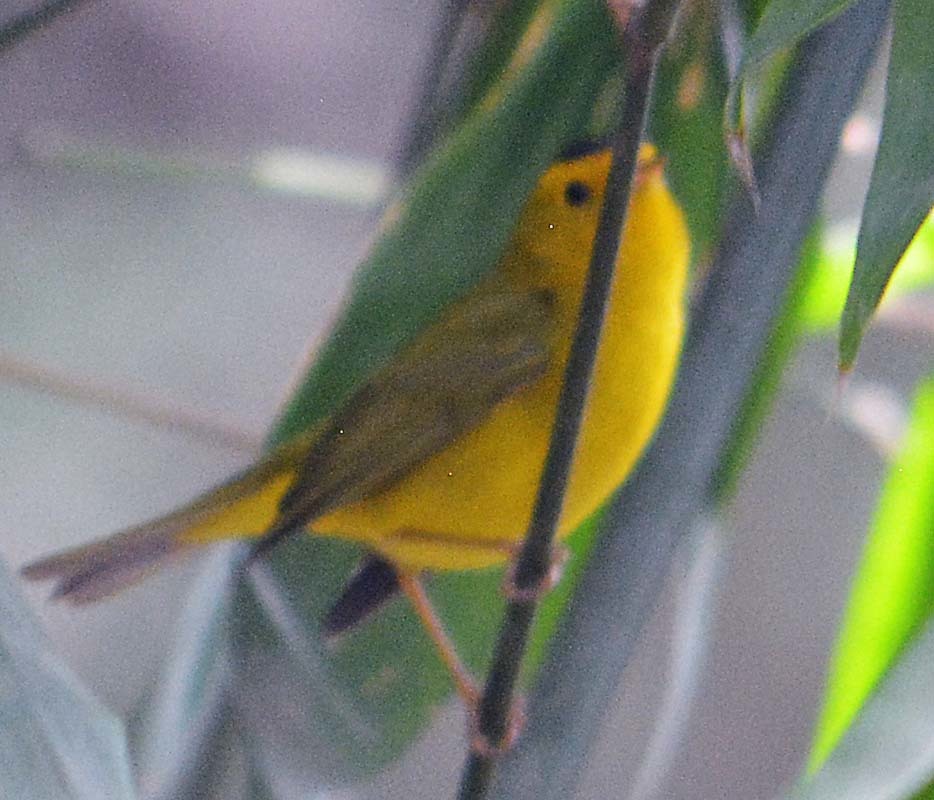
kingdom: Animalia
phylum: Chordata
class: Aves
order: Passeriformes
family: Parulidae
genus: Cardellina
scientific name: Cardellina pusilla
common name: Wilson's warbler
